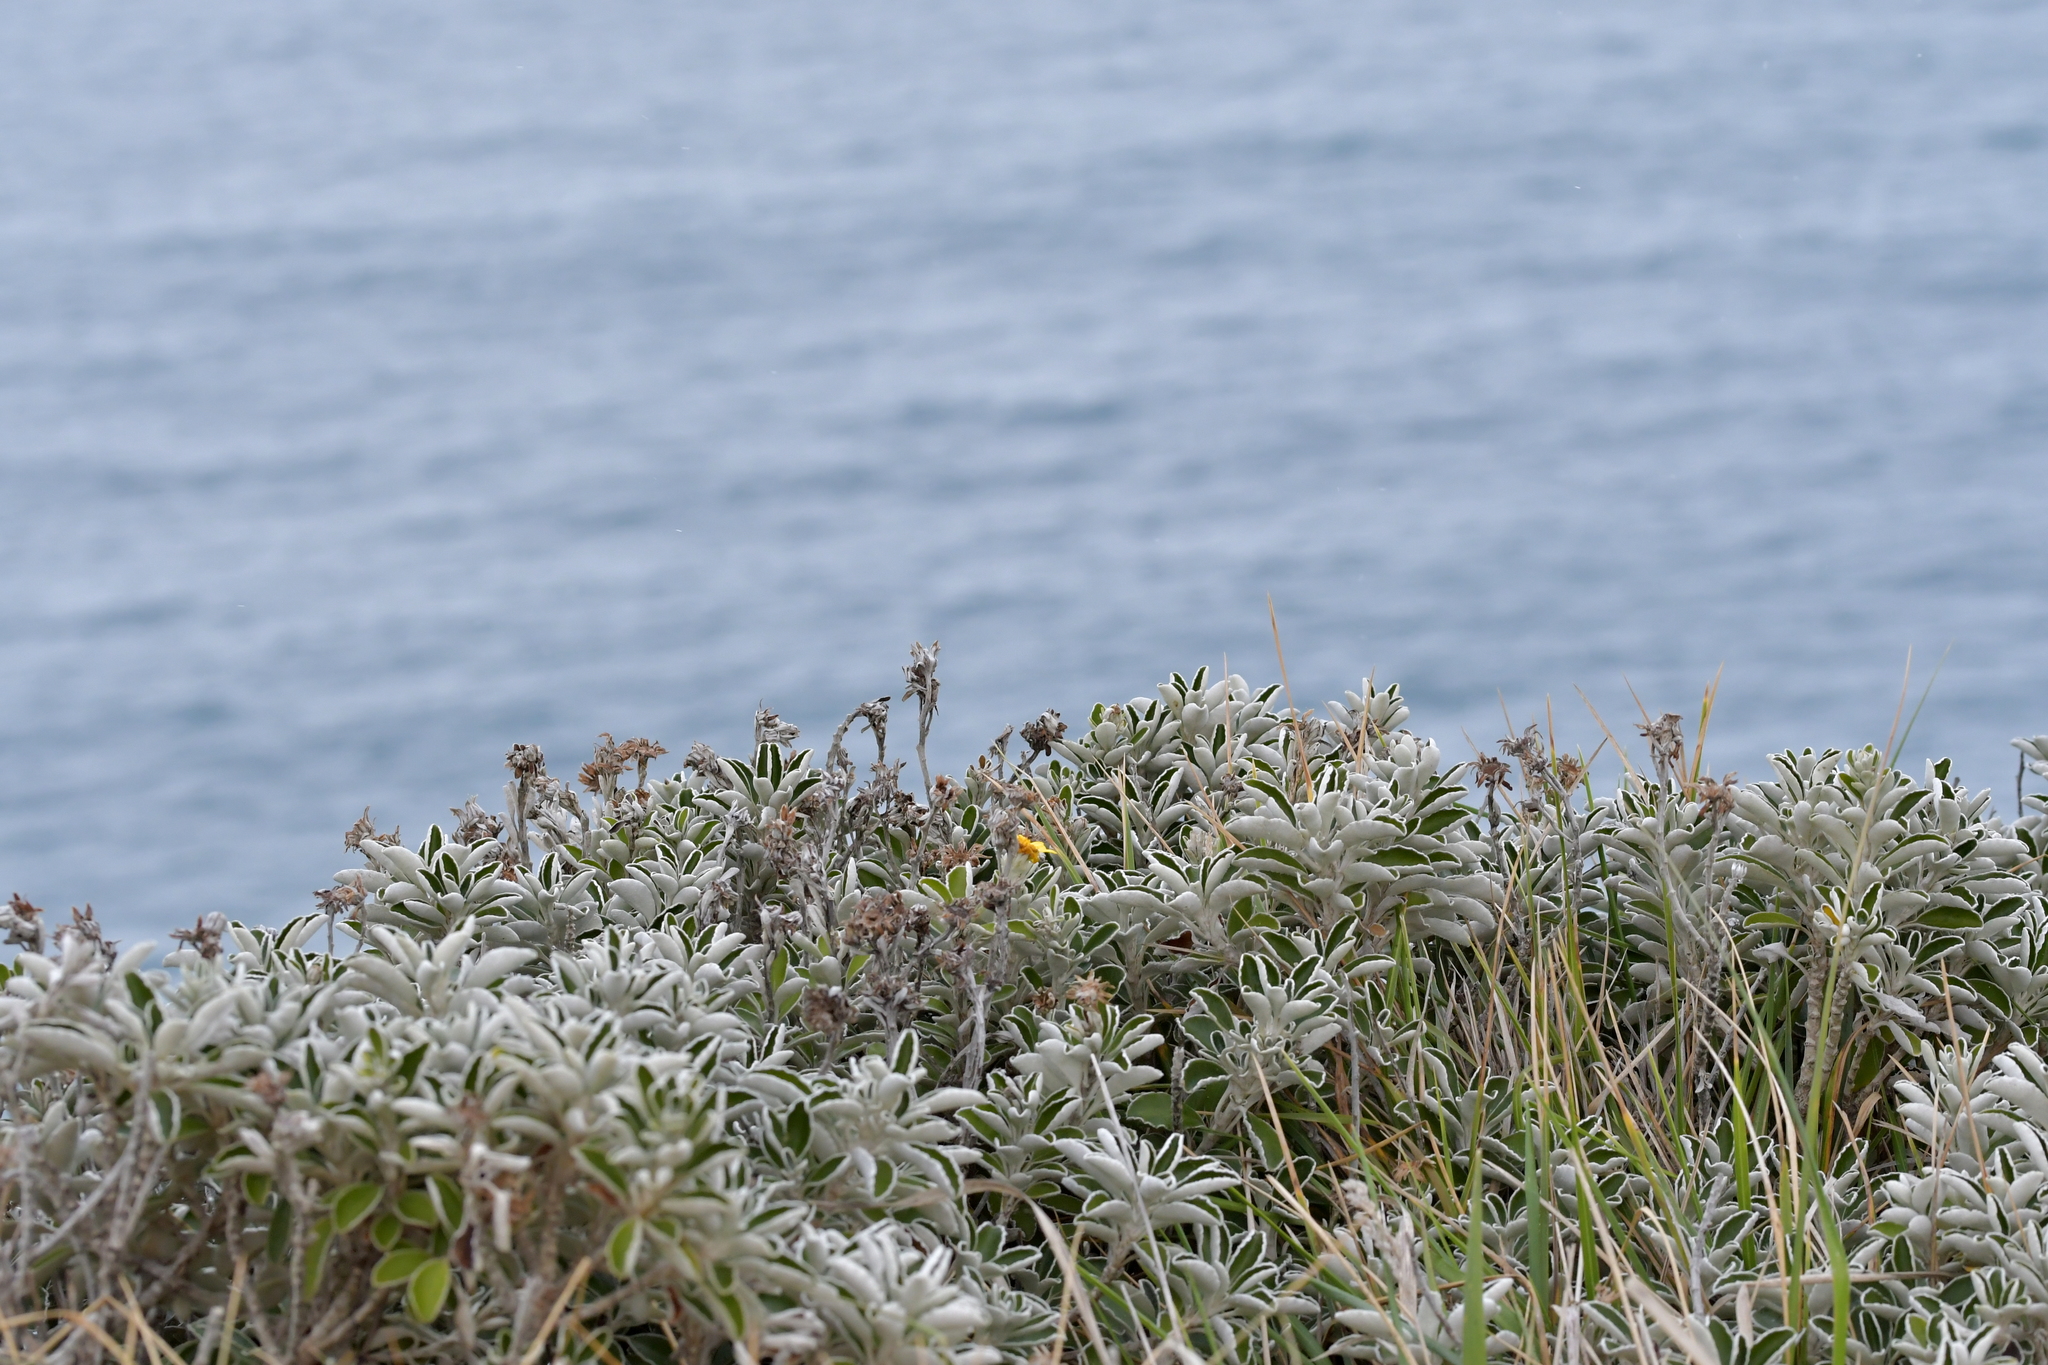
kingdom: Plantae
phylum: Tracheophyta
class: Magnoliopsida
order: Asterales
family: Asteraceae
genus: Brachyglottis
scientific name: Brachyglottis compacta
